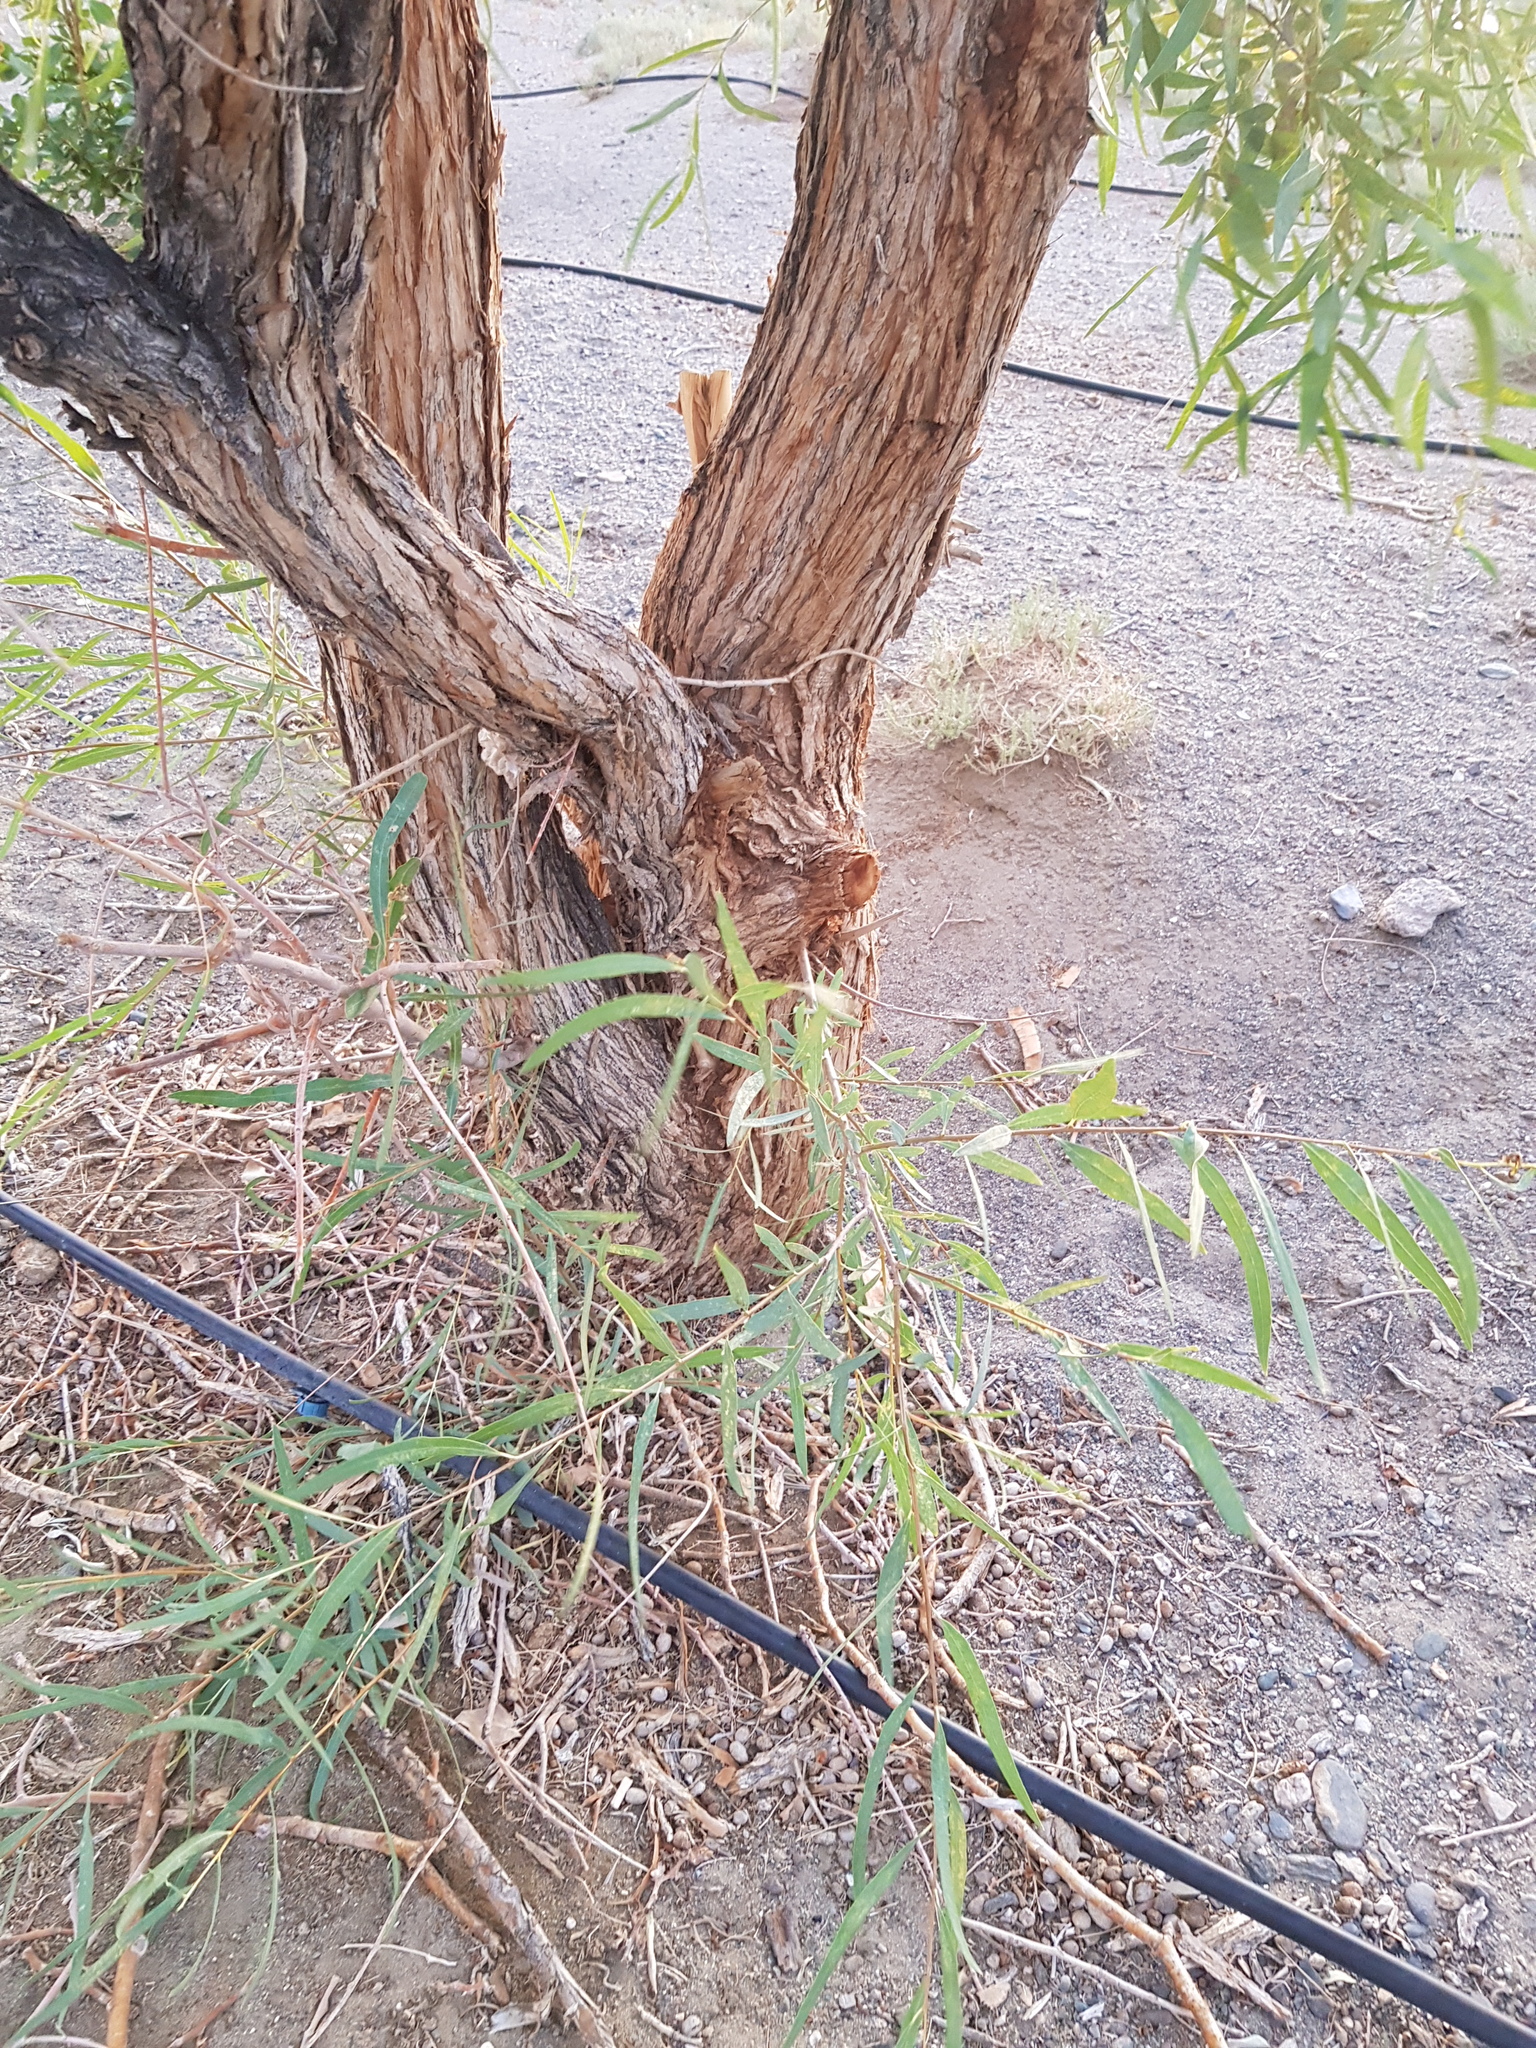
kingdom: Plantae
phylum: Tracheophyta
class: Magnoliopsida
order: Malpighiales
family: Salicaceae
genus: Populus
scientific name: Populus euphratica
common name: Euphrates poplar
